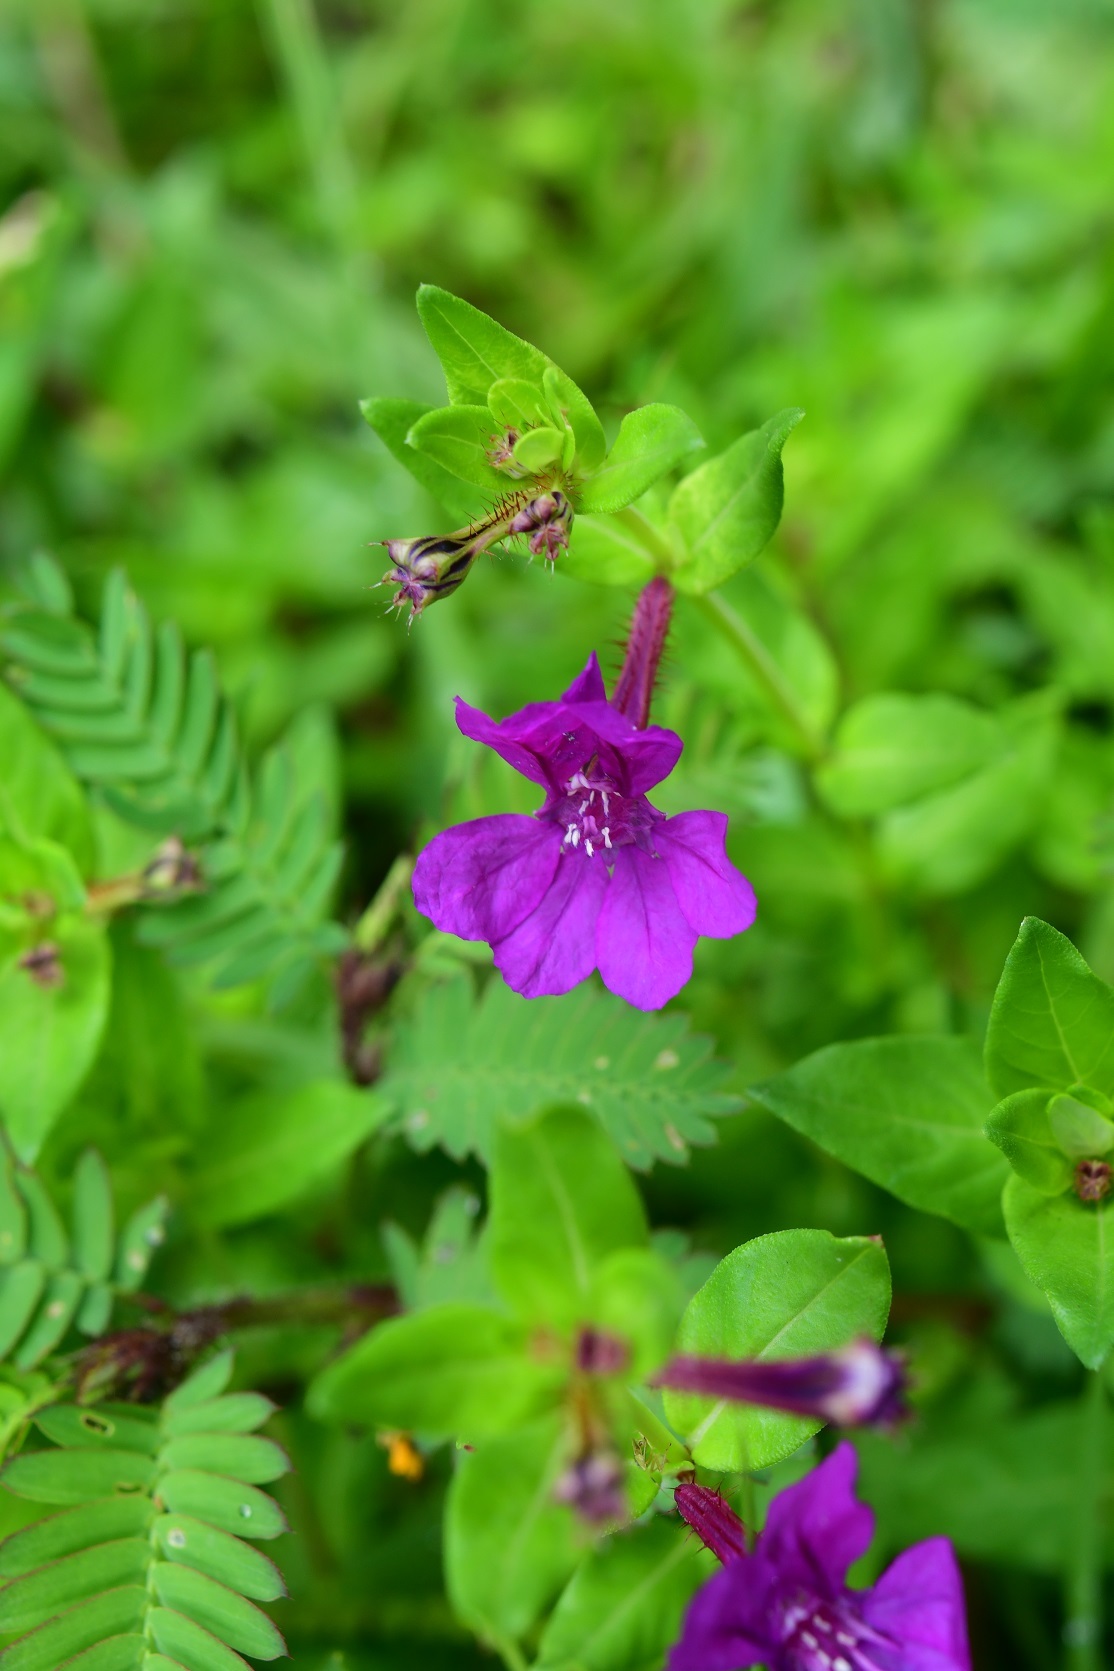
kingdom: Plantae
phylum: Tracheophyta
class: Magnoliopsida
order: Myrtales
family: Lythraceae
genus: Cuphea
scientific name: Cuphea aequipetala
